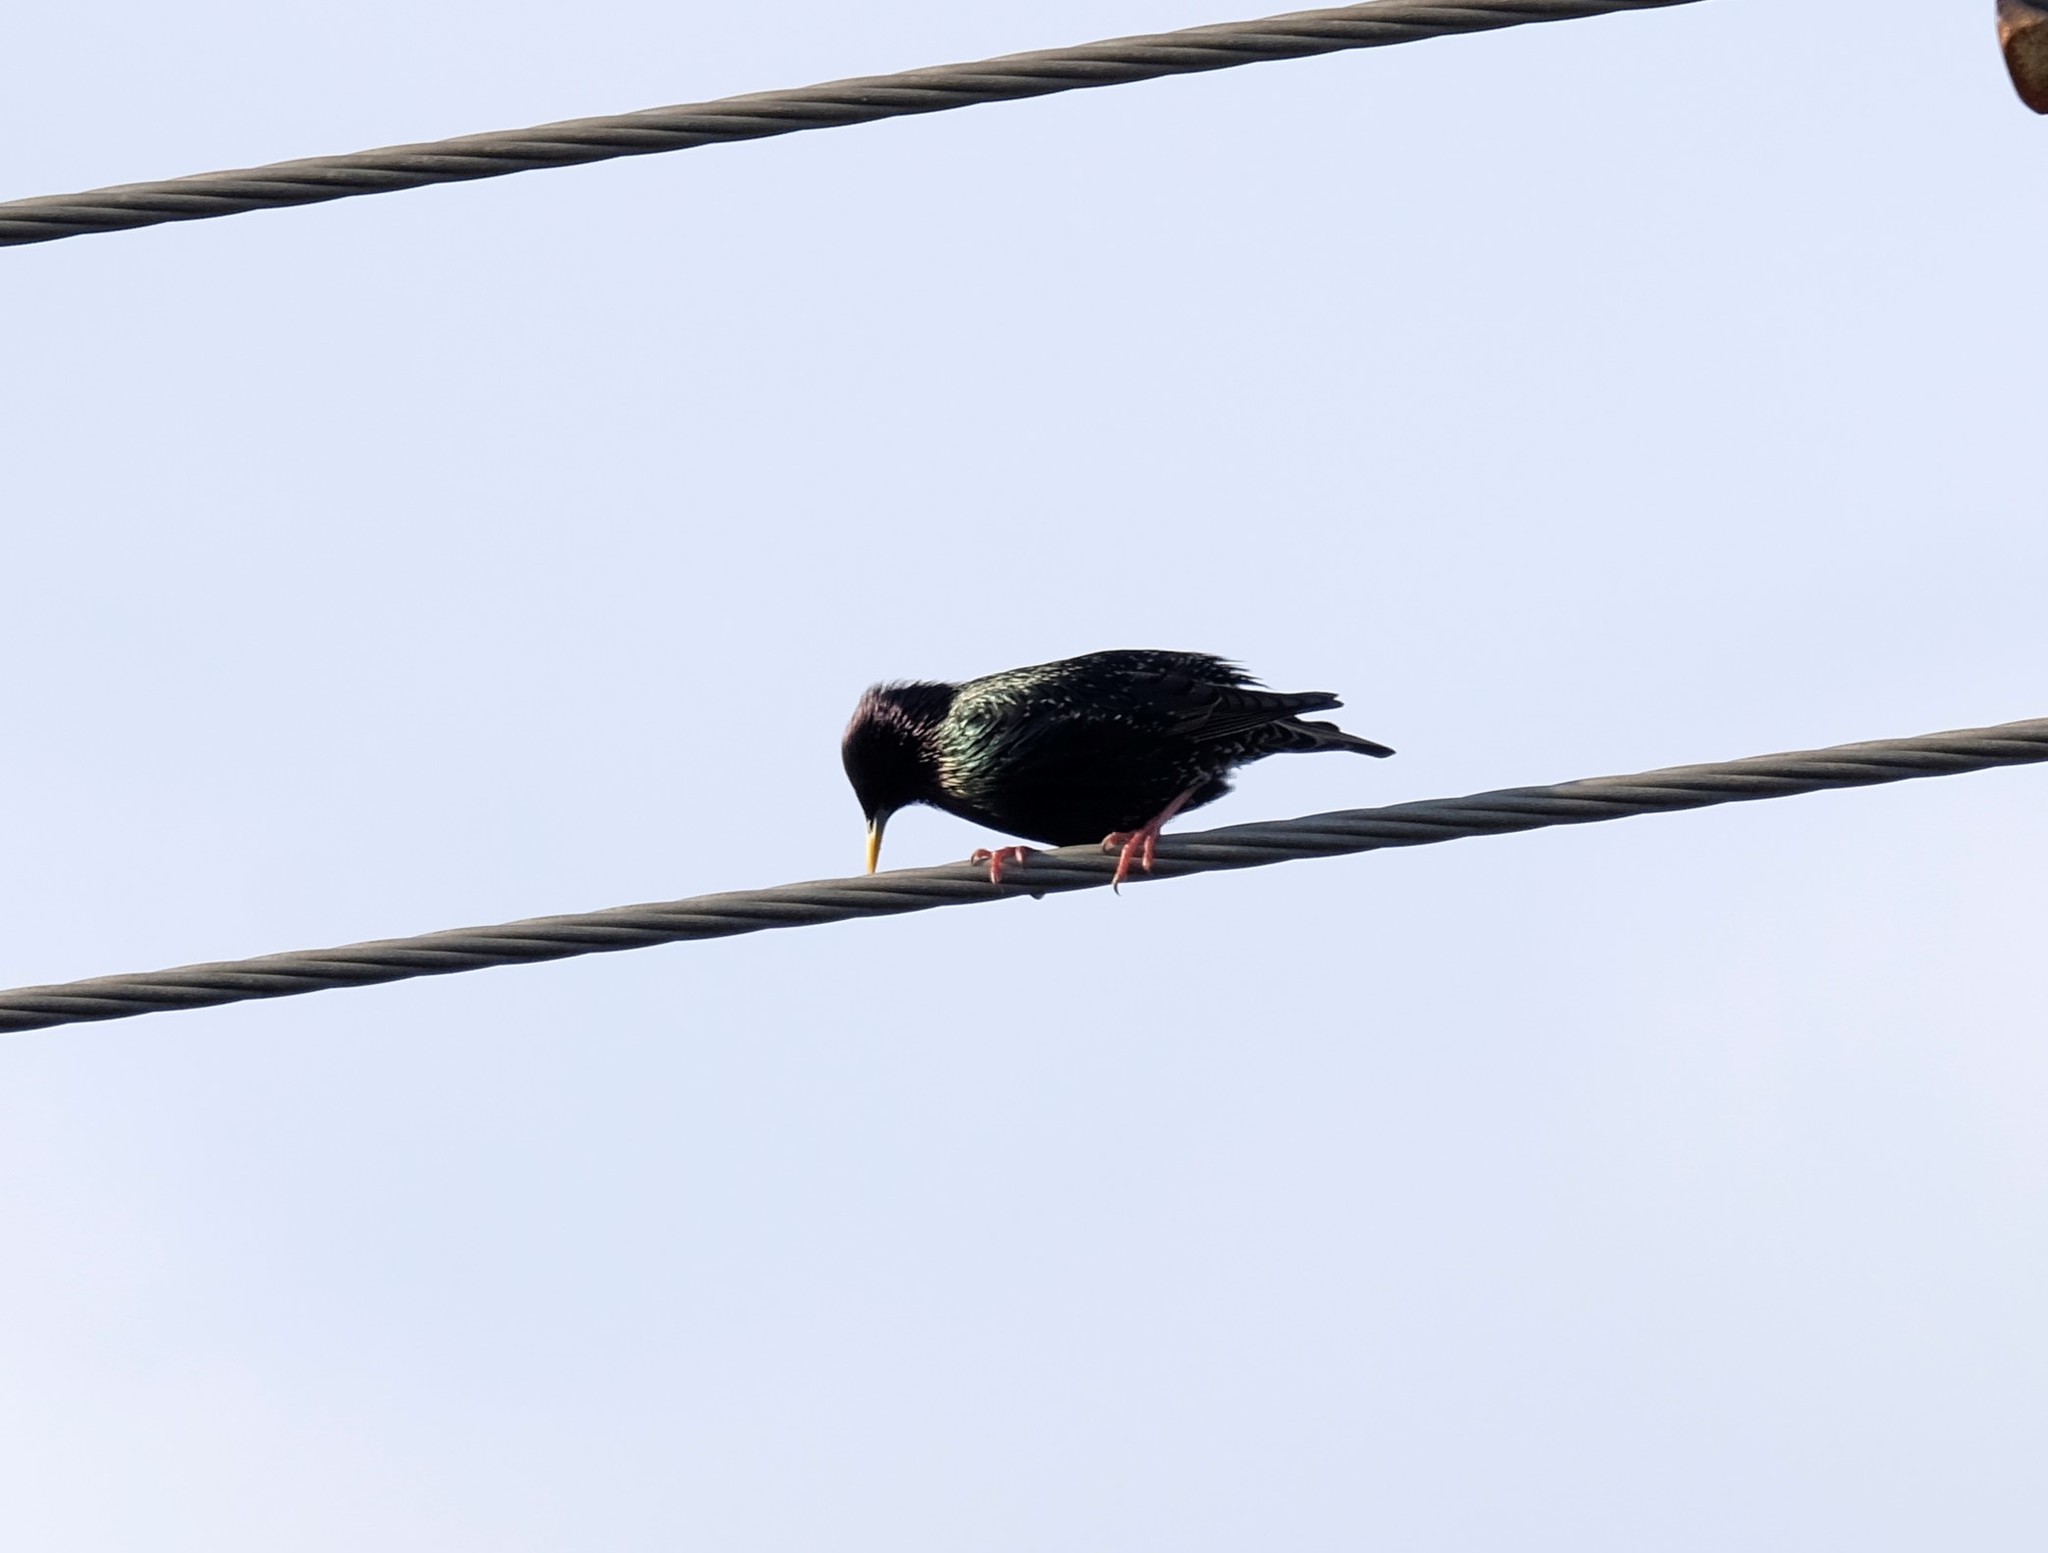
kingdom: Animalia
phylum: Chordata
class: Aves
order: Passeriformes
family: Sturnidae
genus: Sturnus
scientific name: Sturnus vulgaris
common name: Common starling
